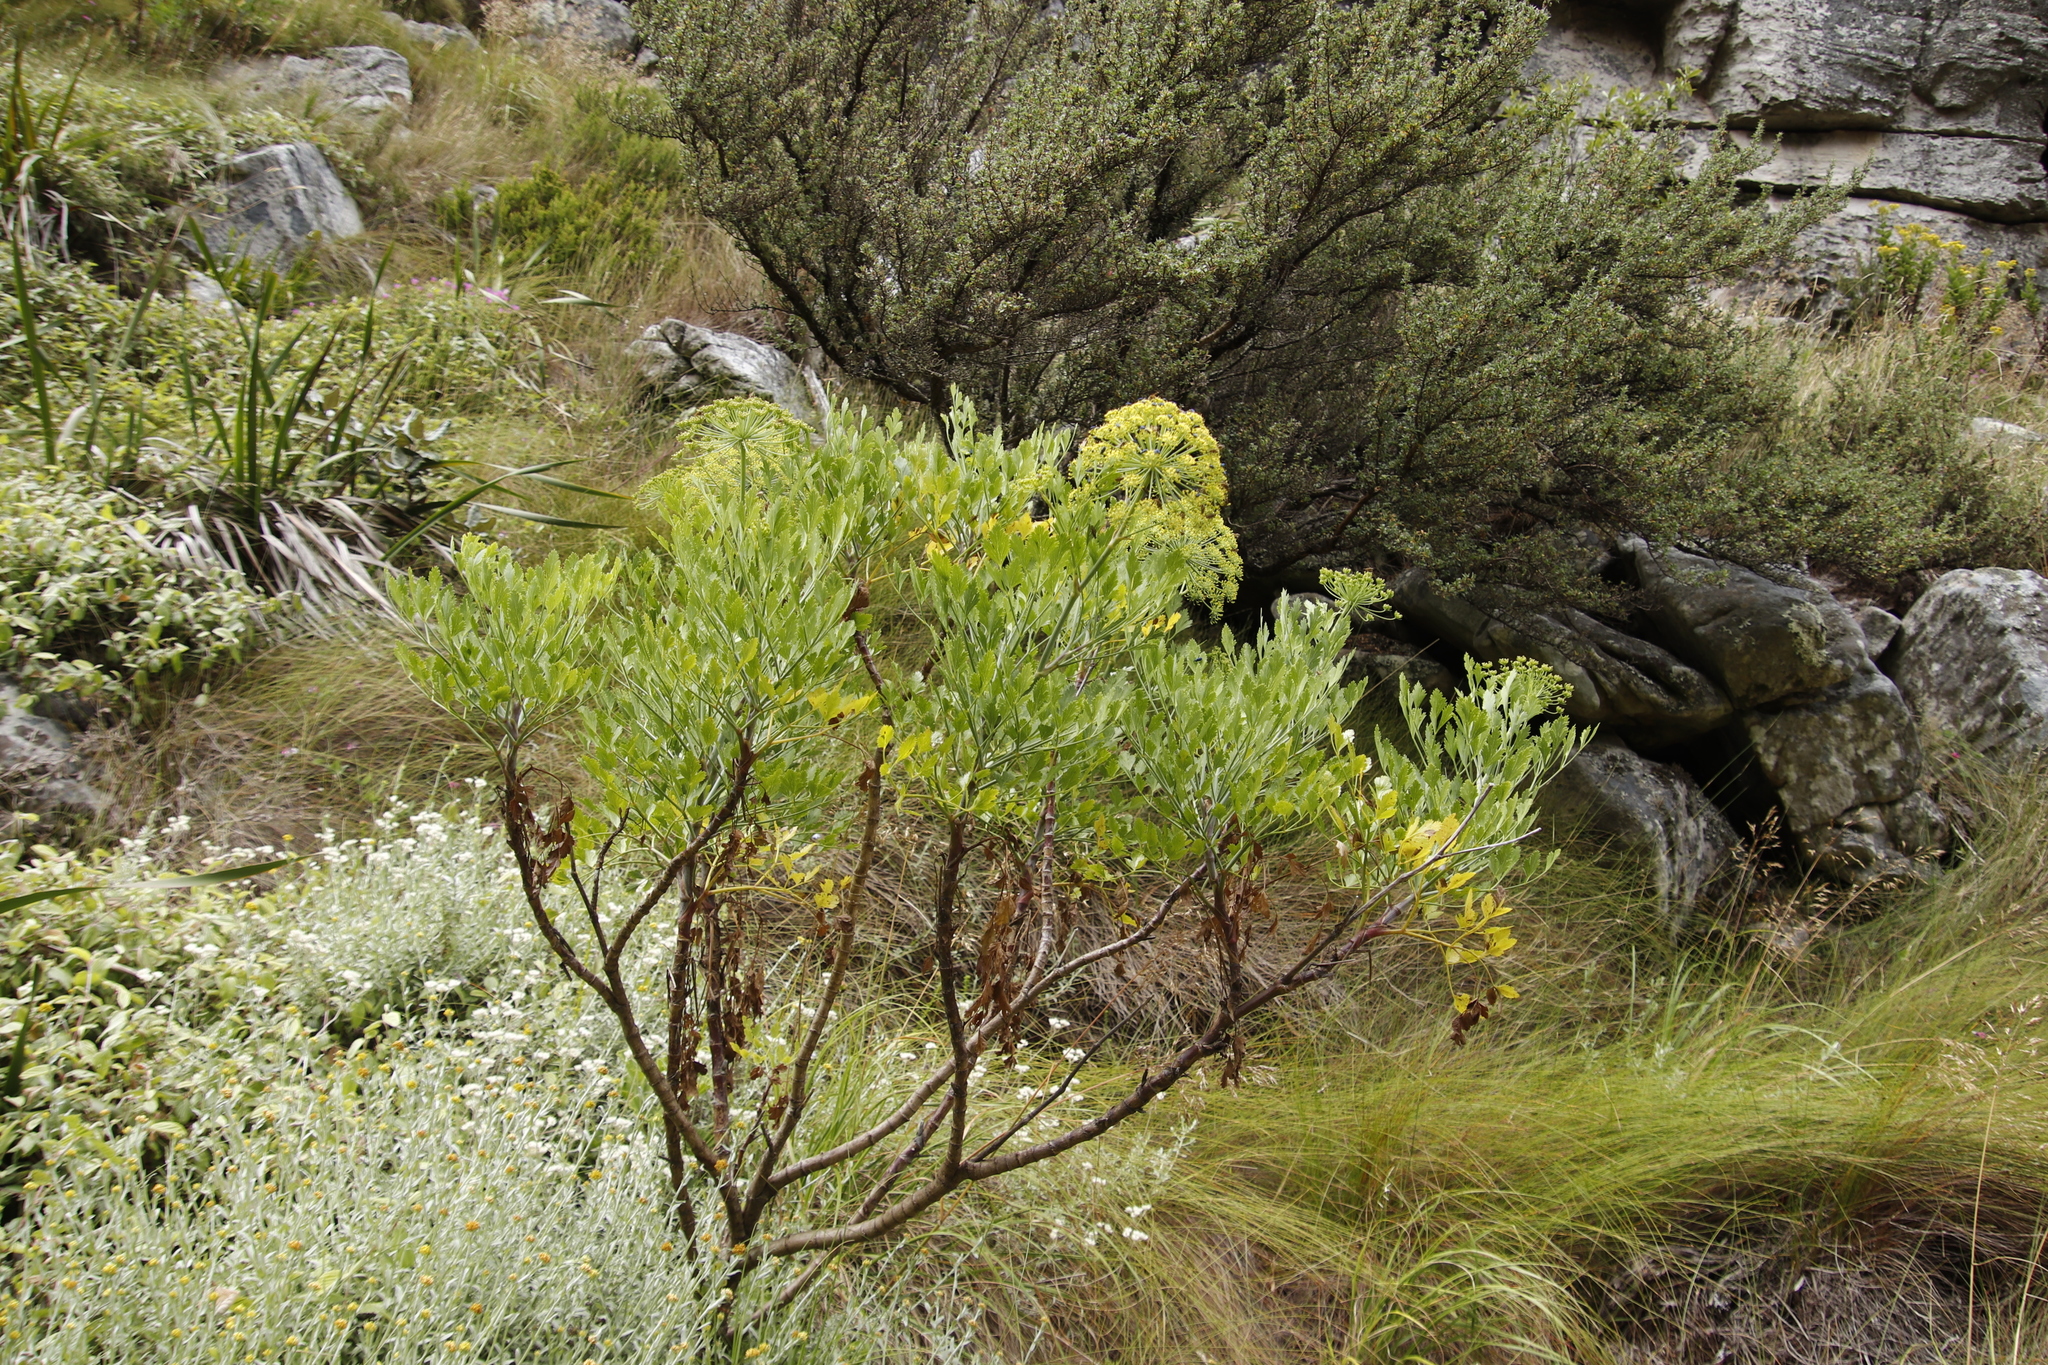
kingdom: Plantae
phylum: Tracheophyta
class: Magnoliopsida
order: Apiales
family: Apiaceae
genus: Notobubon
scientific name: Notobubon galbanum
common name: Blisterbush
